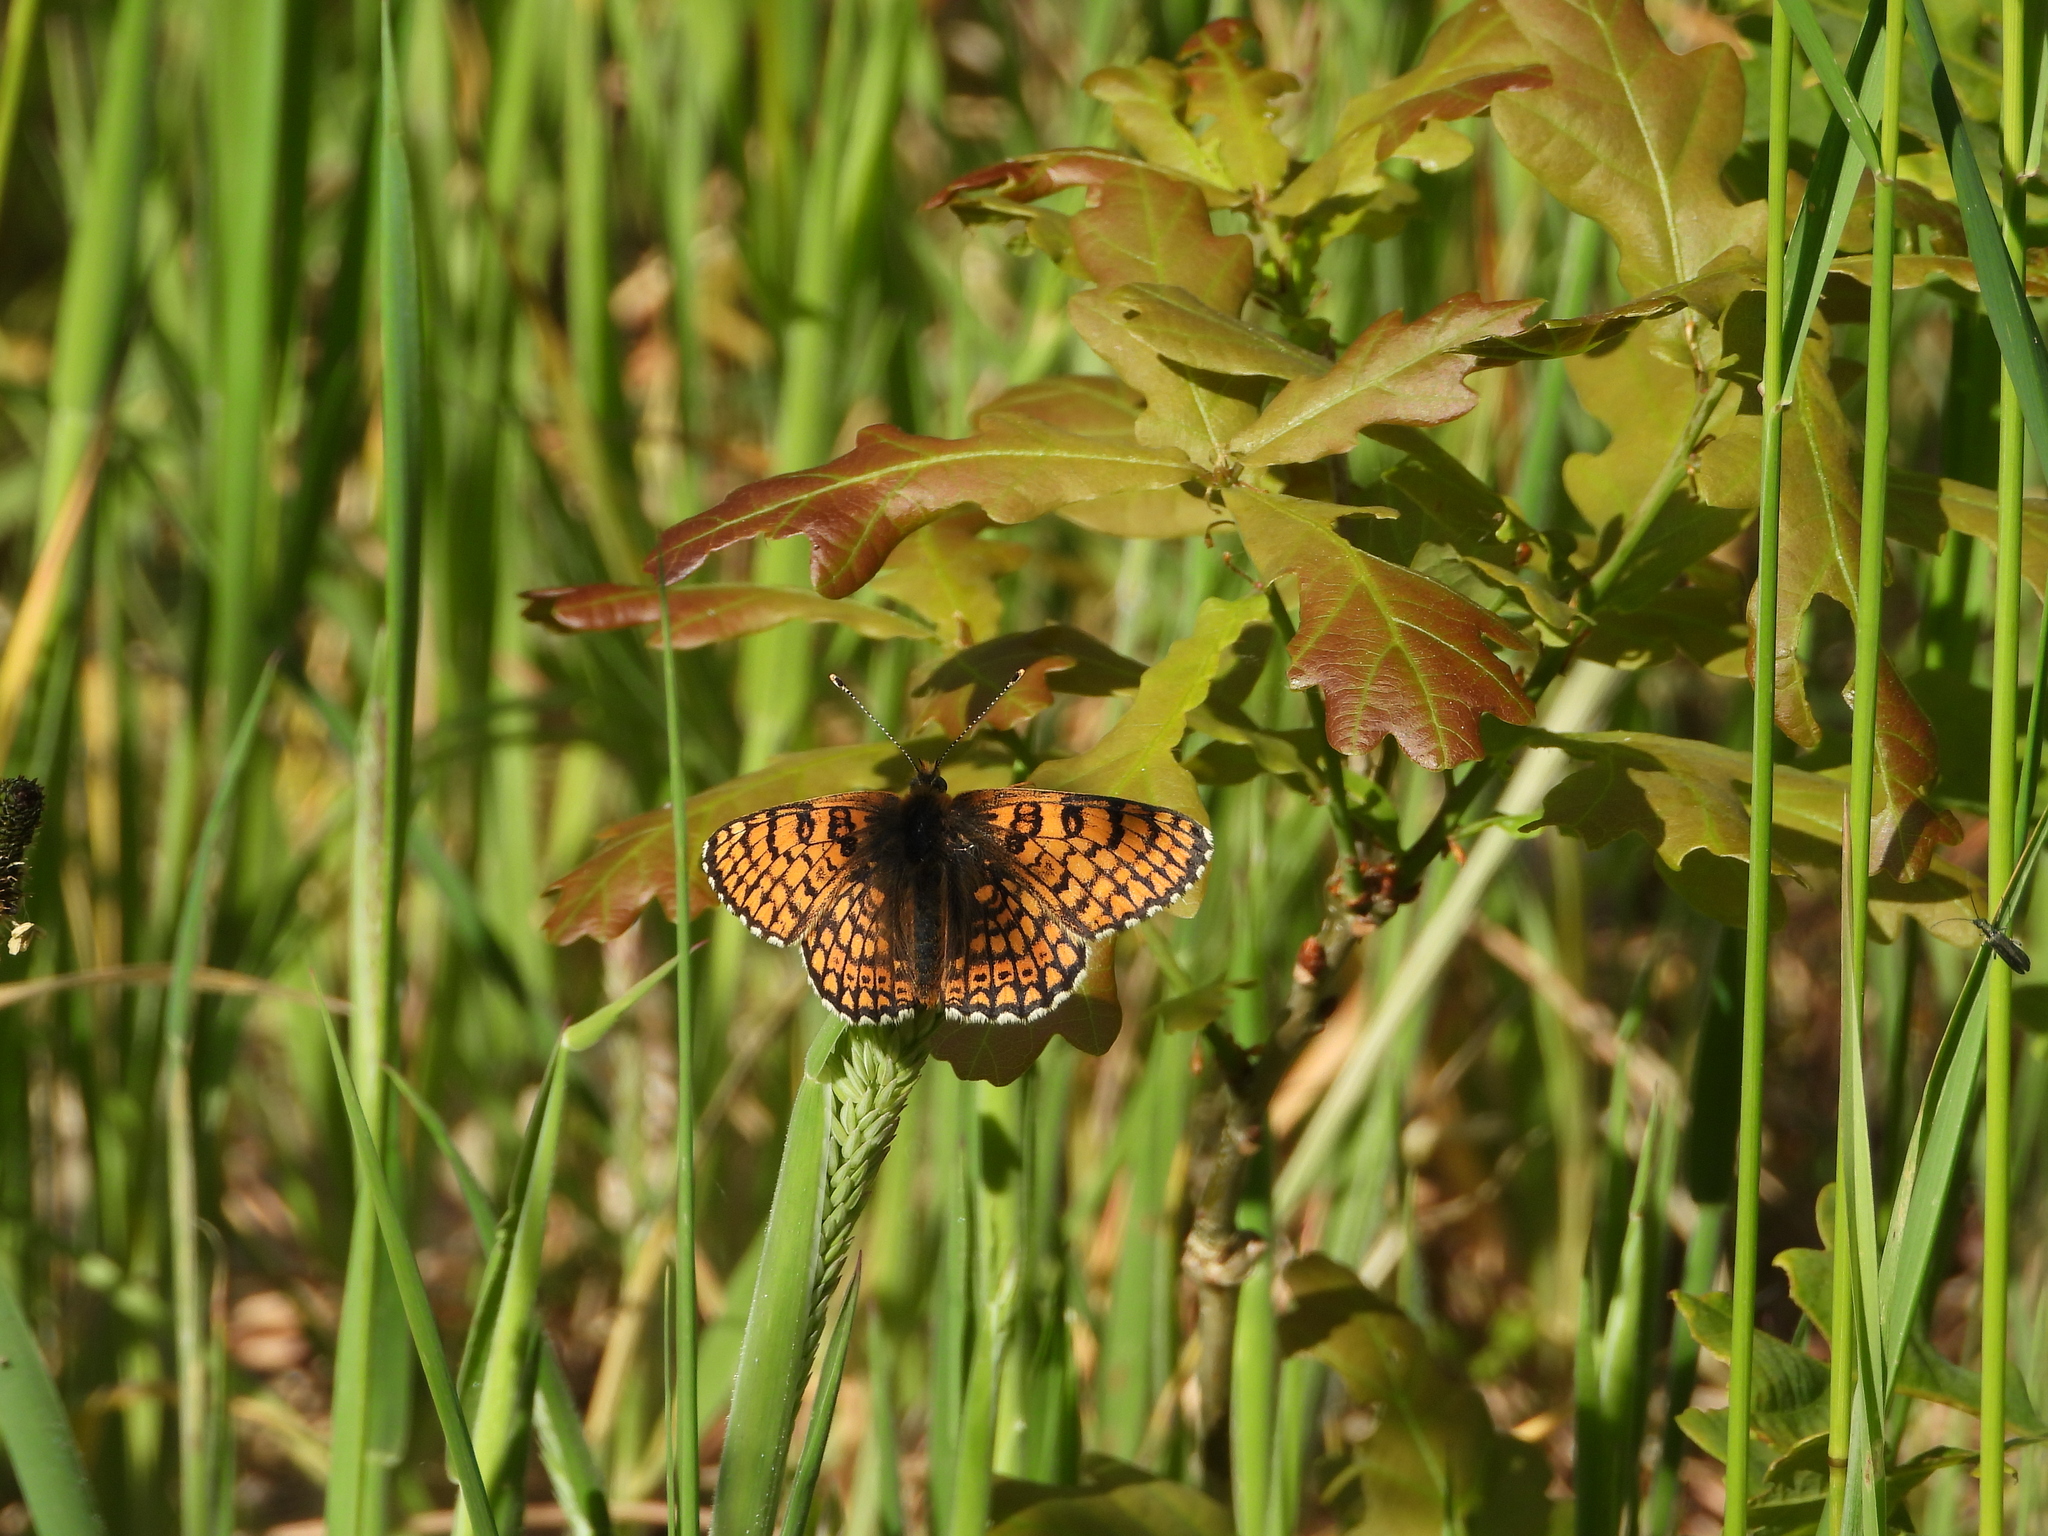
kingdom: Animalia
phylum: Arthropoda
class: Insecta
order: Lepidoptera
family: Nymphalidae
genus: Melitaea
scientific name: Melitaea cinxia
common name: Glanville fritillary
